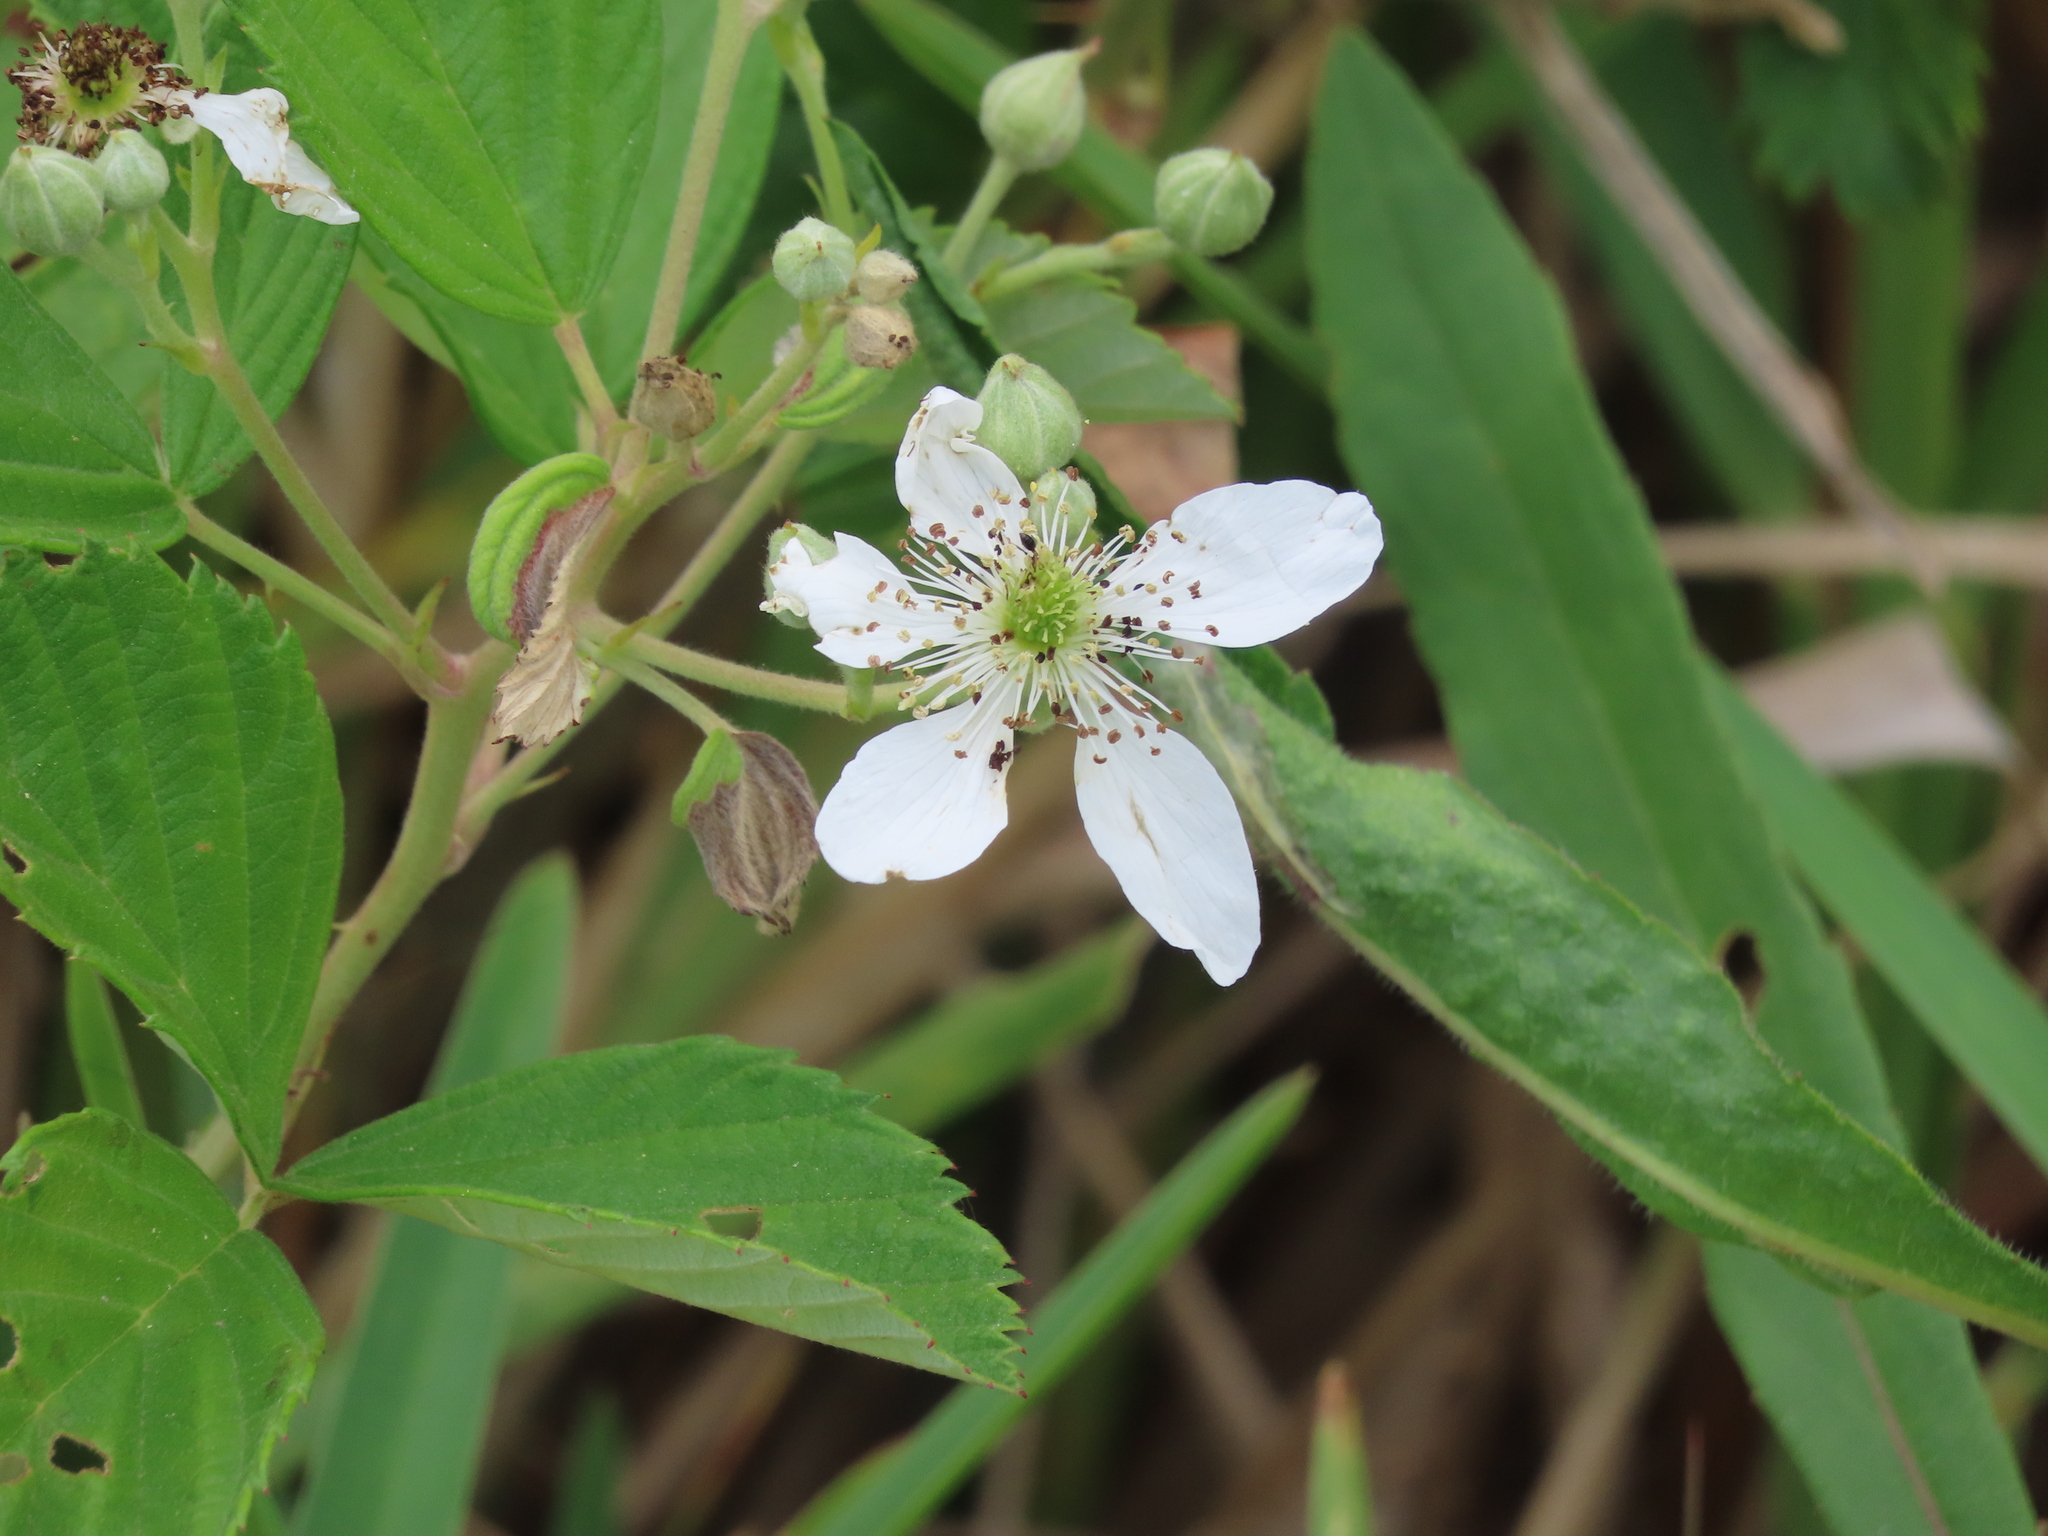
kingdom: Plantae
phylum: Tracheophyta
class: Magnoliopsida
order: Rosales
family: Rosaceae
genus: Rubus
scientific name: Rubus cuneifolius
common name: American bramble
